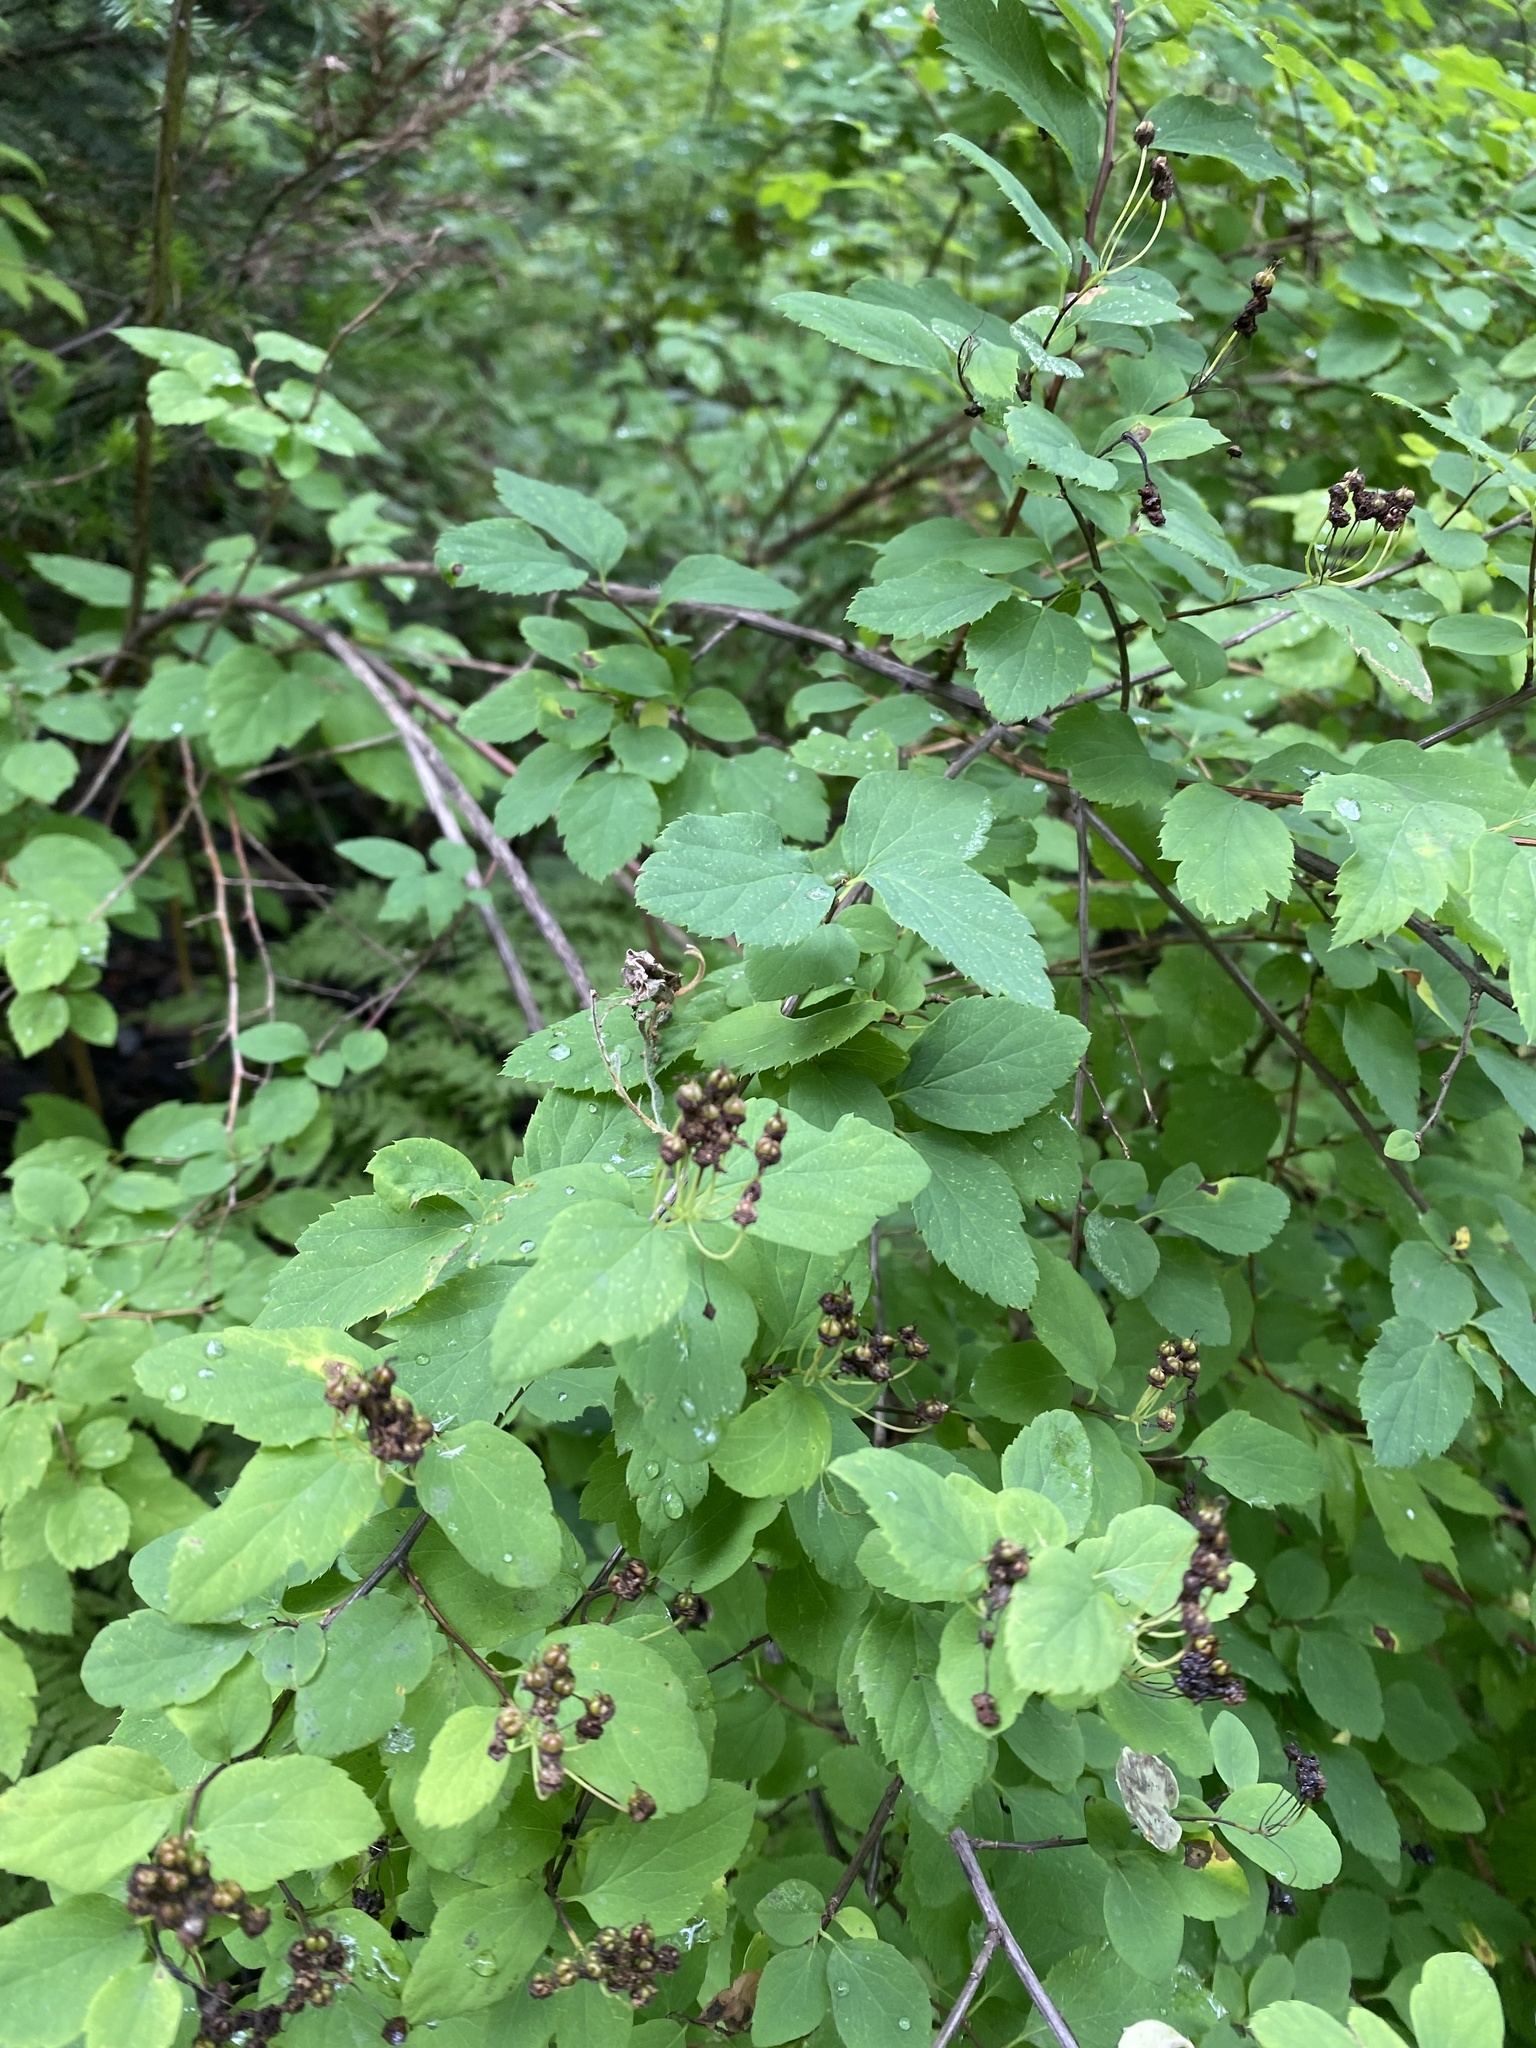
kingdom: Plantae
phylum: Tracheophyta
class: Magnoliopsida
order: Rosales
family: Rosaceae
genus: Spiraea
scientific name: Spiraea chamaedryfolia
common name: Elm-leaved spiraea
